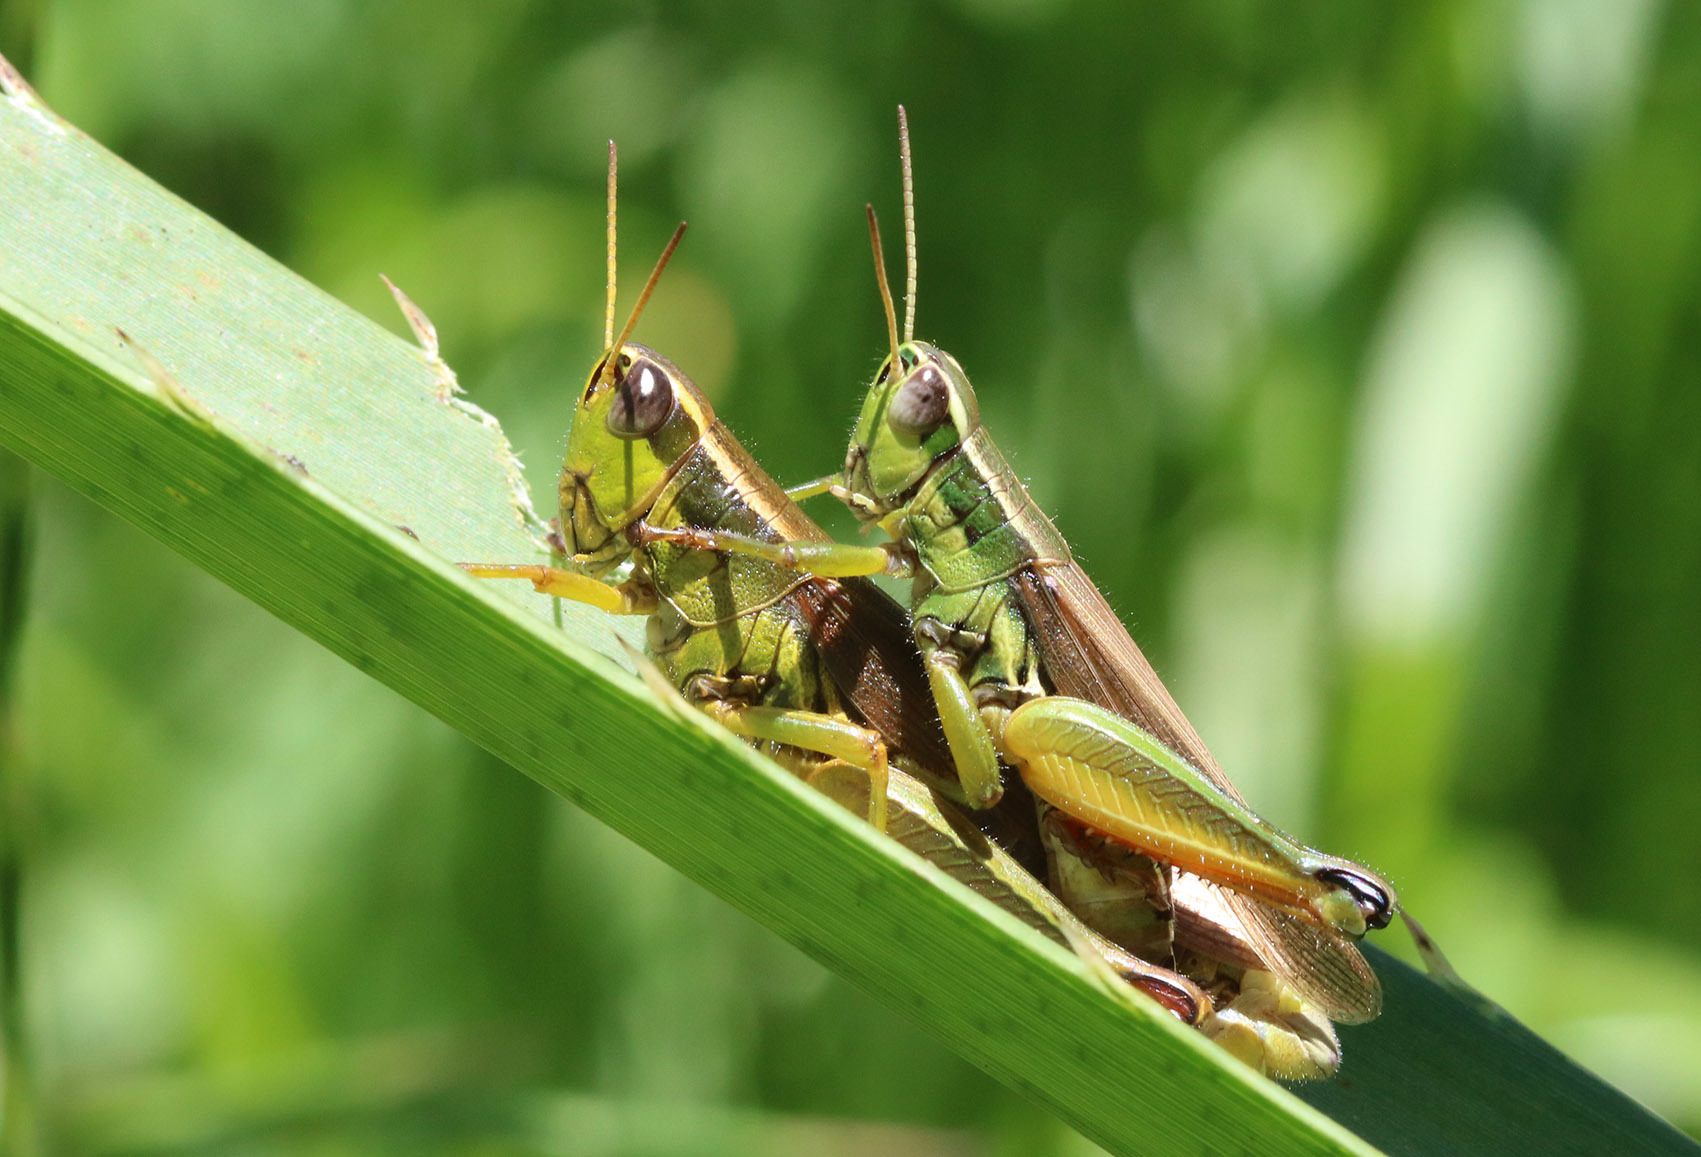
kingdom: Animalia
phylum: Arthropoda
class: Insecta
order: Orthoptera
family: Acrididae
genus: Scotussa
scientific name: Scotussa cliens
